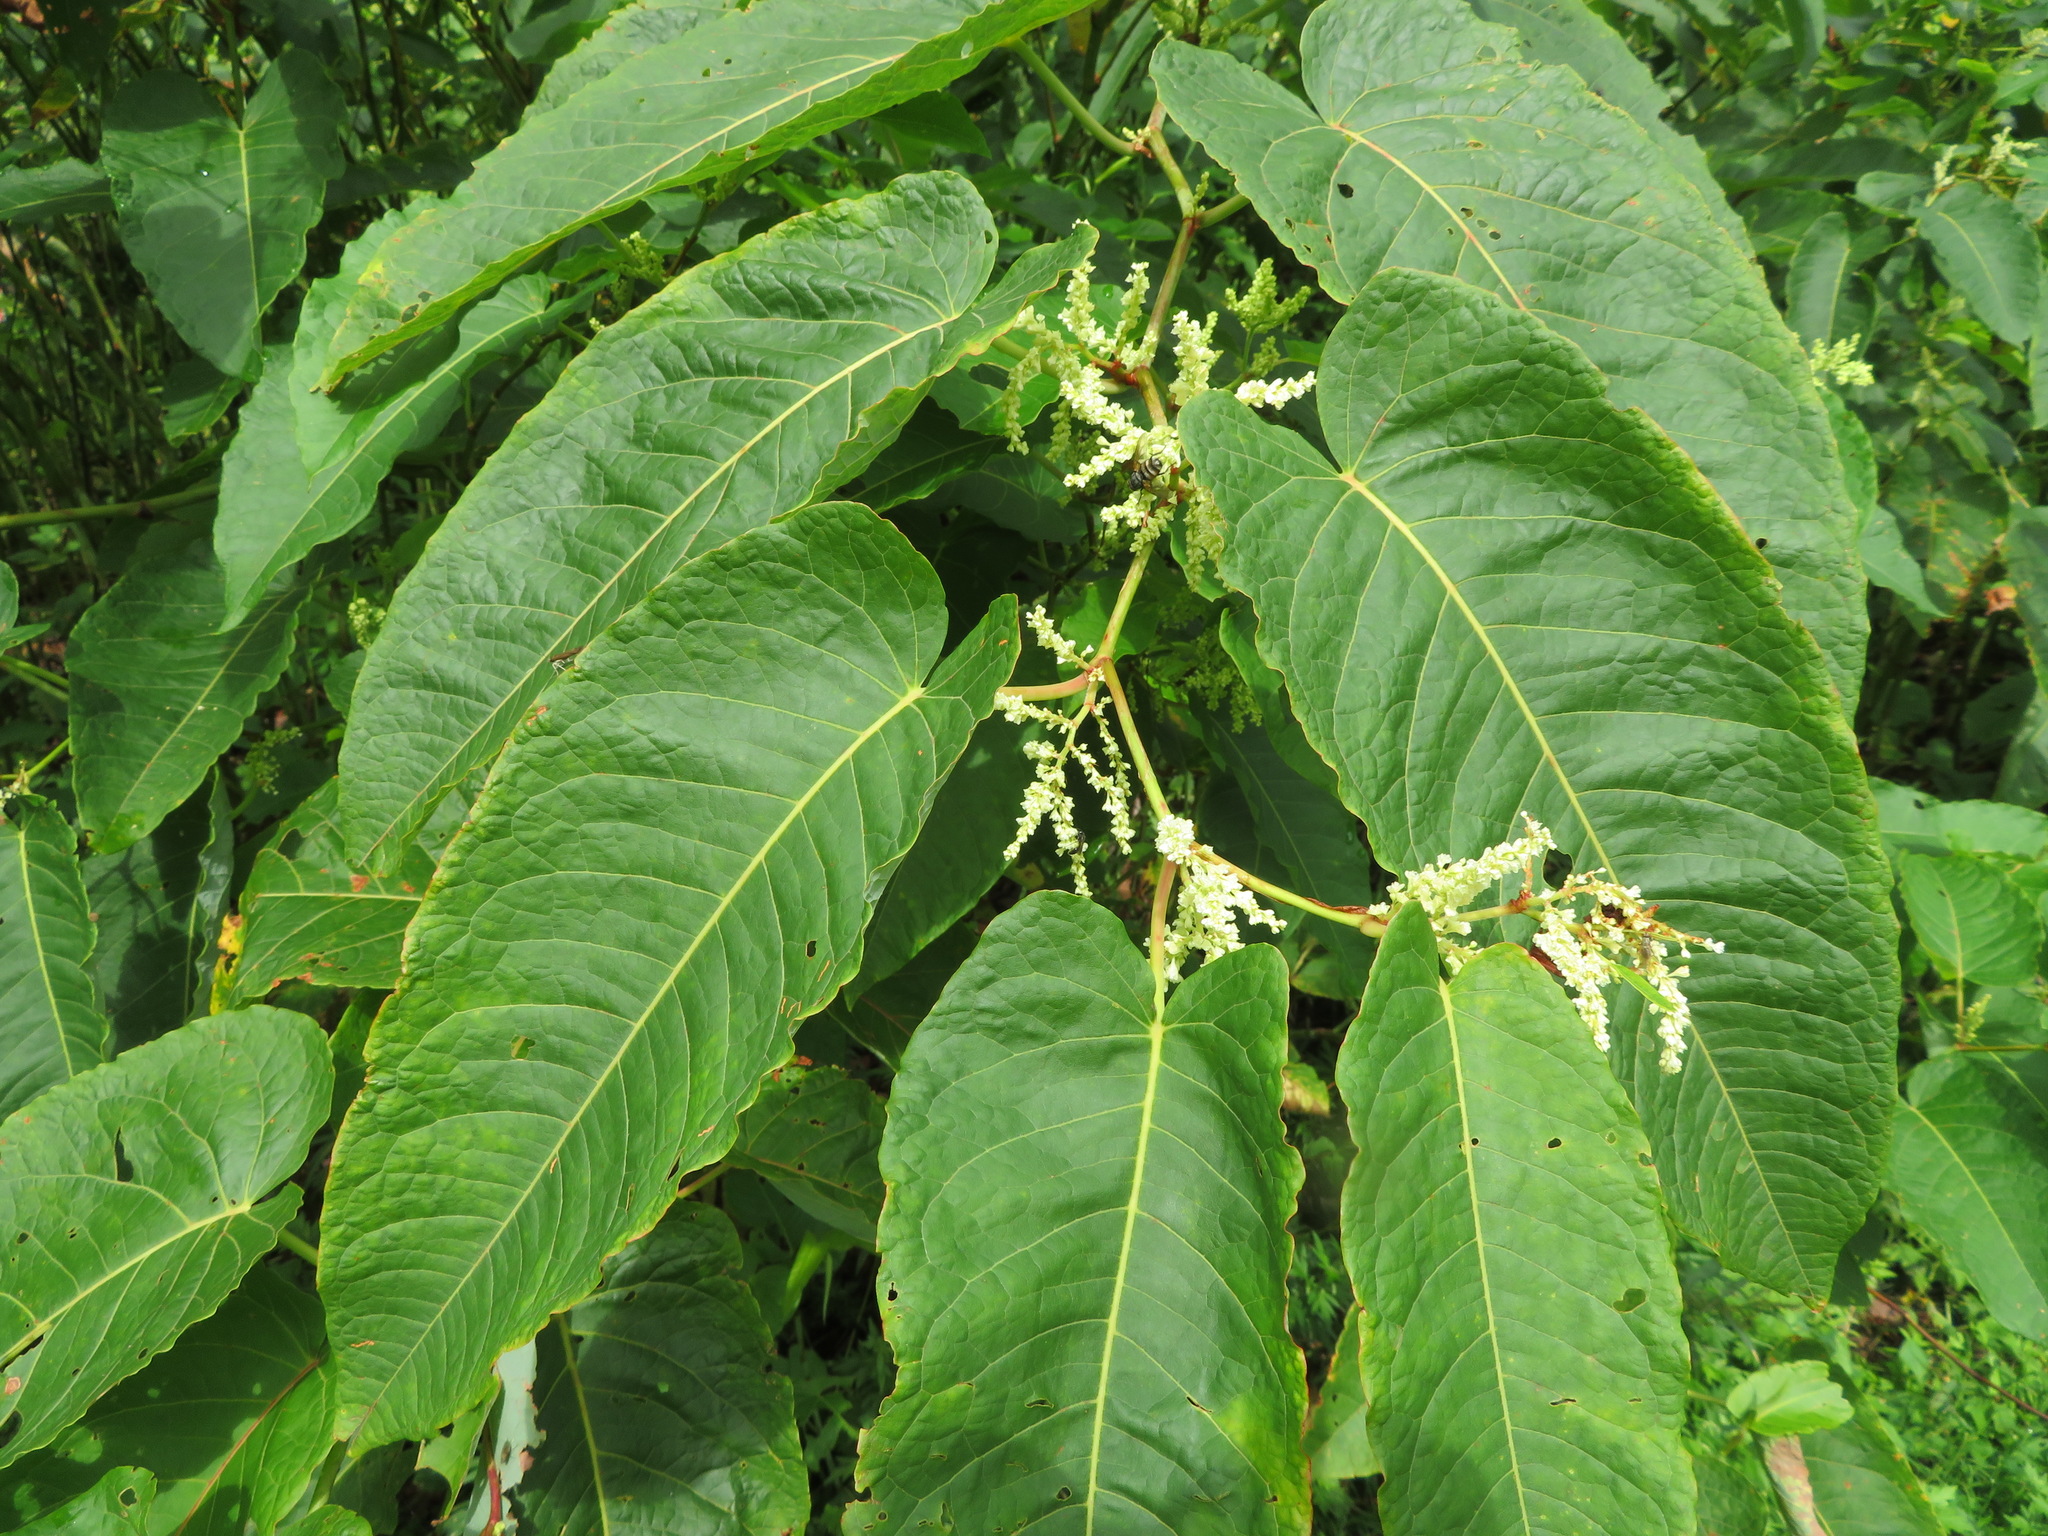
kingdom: Plantae
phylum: Tracheophyta
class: Magnoliopsida
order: Caryophyllales
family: Polygonaceae
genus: Reynoutria
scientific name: Reynoutria sachalinensis
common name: Giant knotweed
